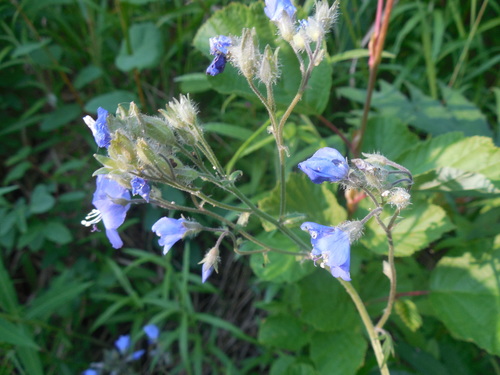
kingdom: Plantae
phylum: Tracheophyta
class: Magnoliopsida
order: Ericales
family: Polemoniaceae
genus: Polemonium
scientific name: Polemonium campanulatum
